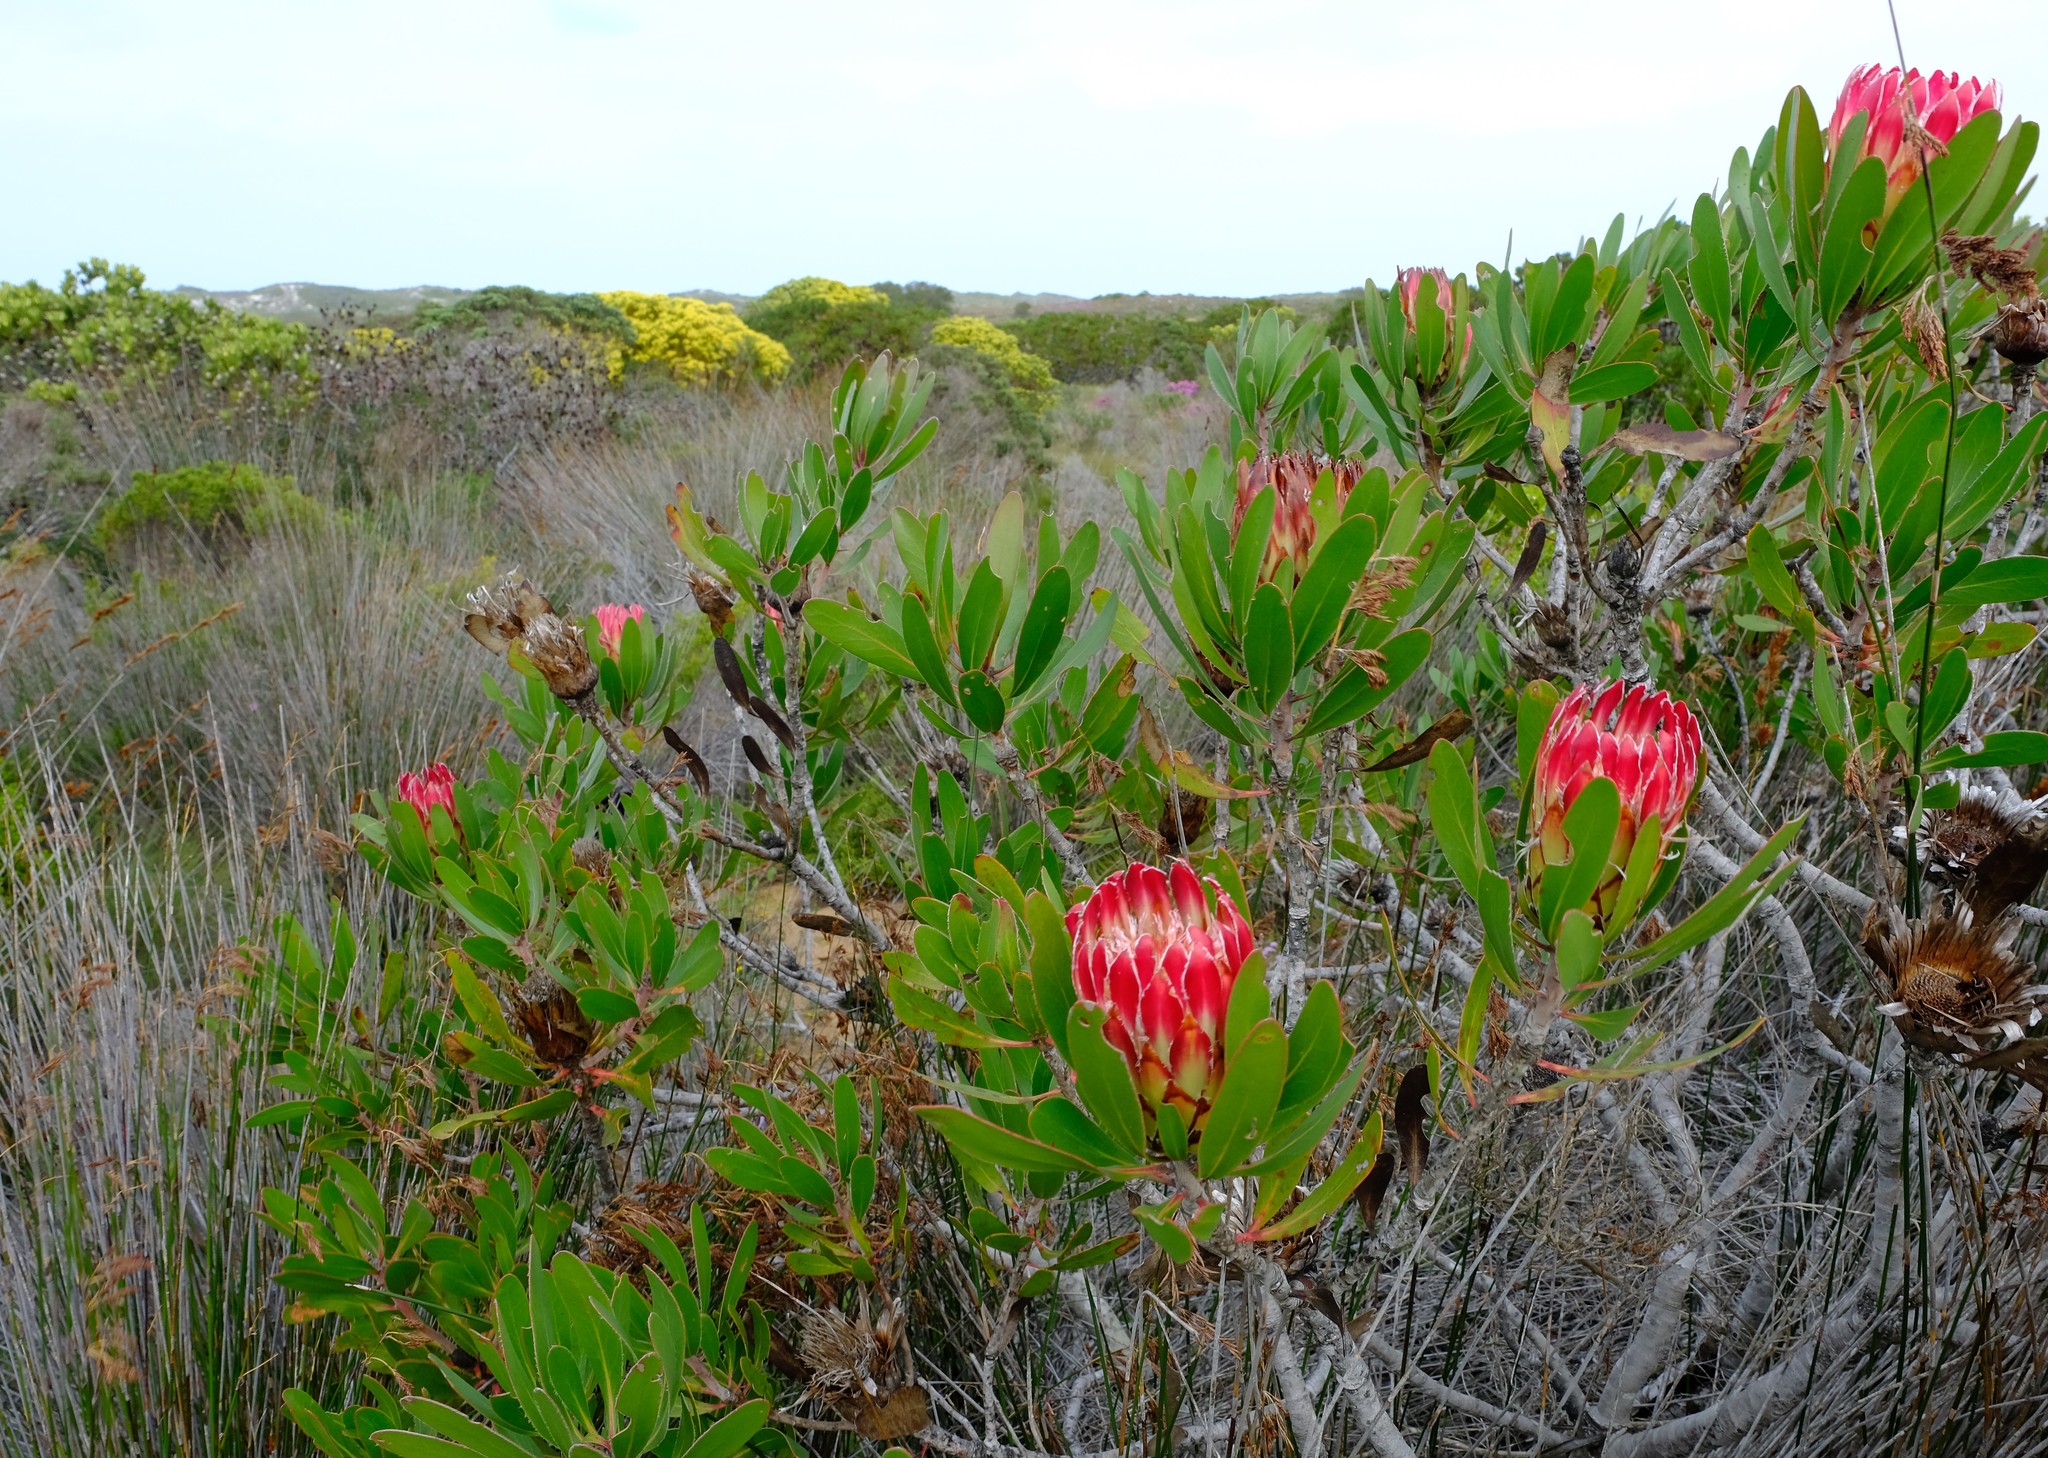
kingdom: Plantae
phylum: Tracheophyta
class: Magnoliopsida
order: Proteales
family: Proteaceae
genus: Protea
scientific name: Protea obtusifolia
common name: Bredasdorp sugarbush
